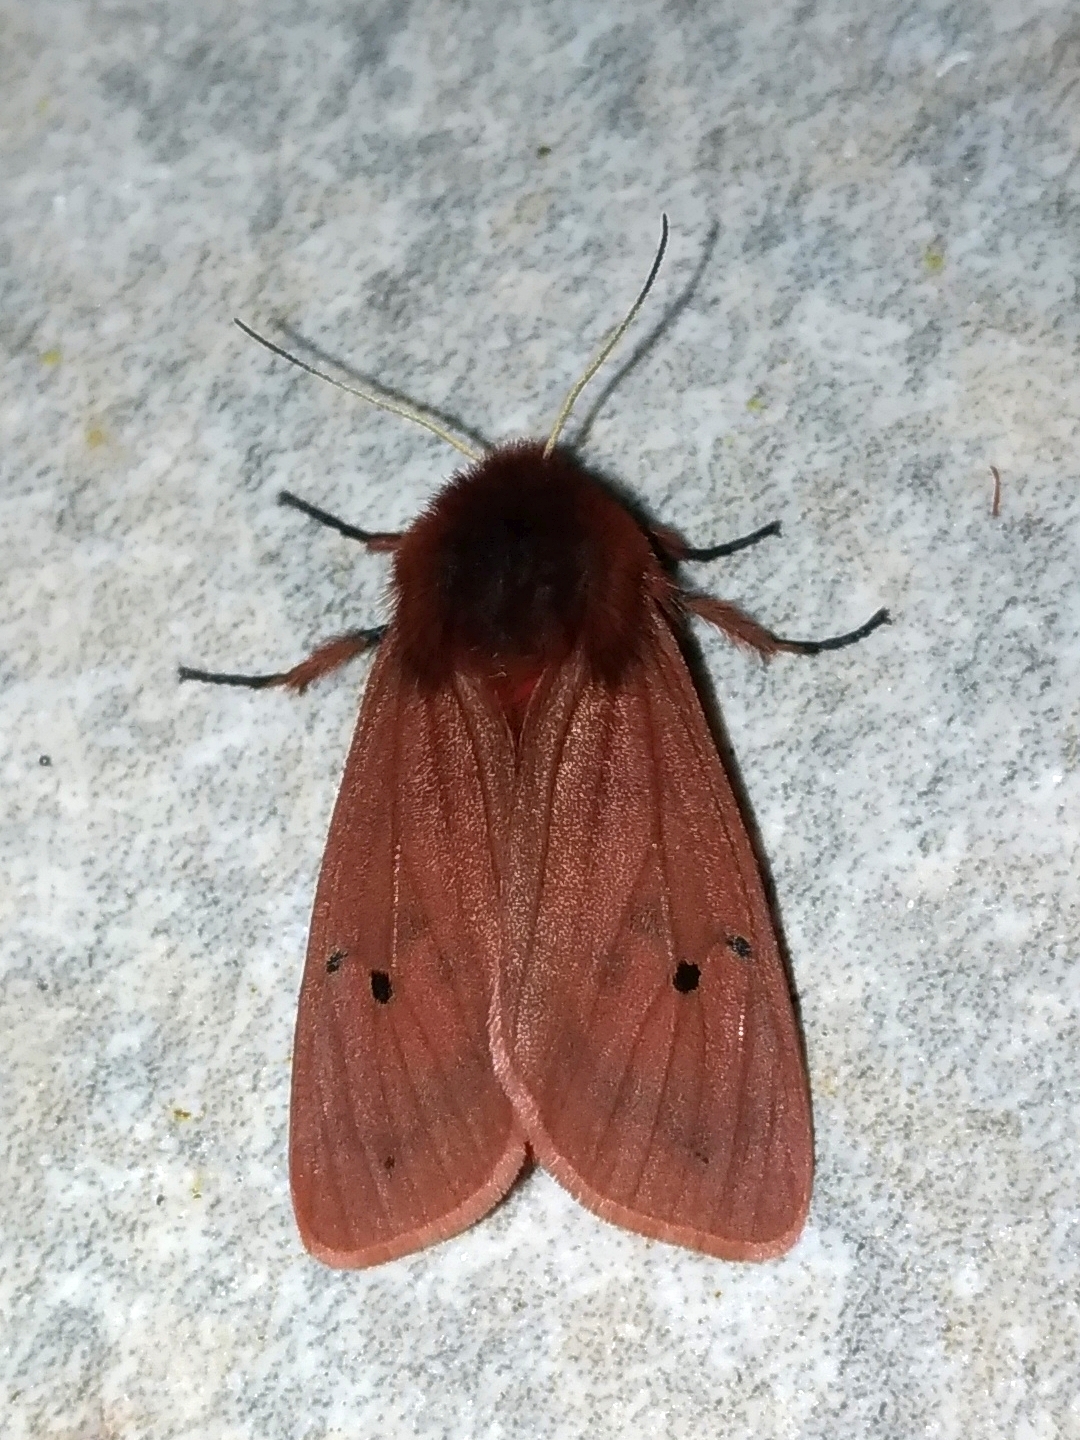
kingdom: Animalia
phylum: Arthropoda
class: Insecta
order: Lepidoptera
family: Erebidae
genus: Phragmatobia
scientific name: Phragmatobia fuliginosa
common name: Ruby tiger
